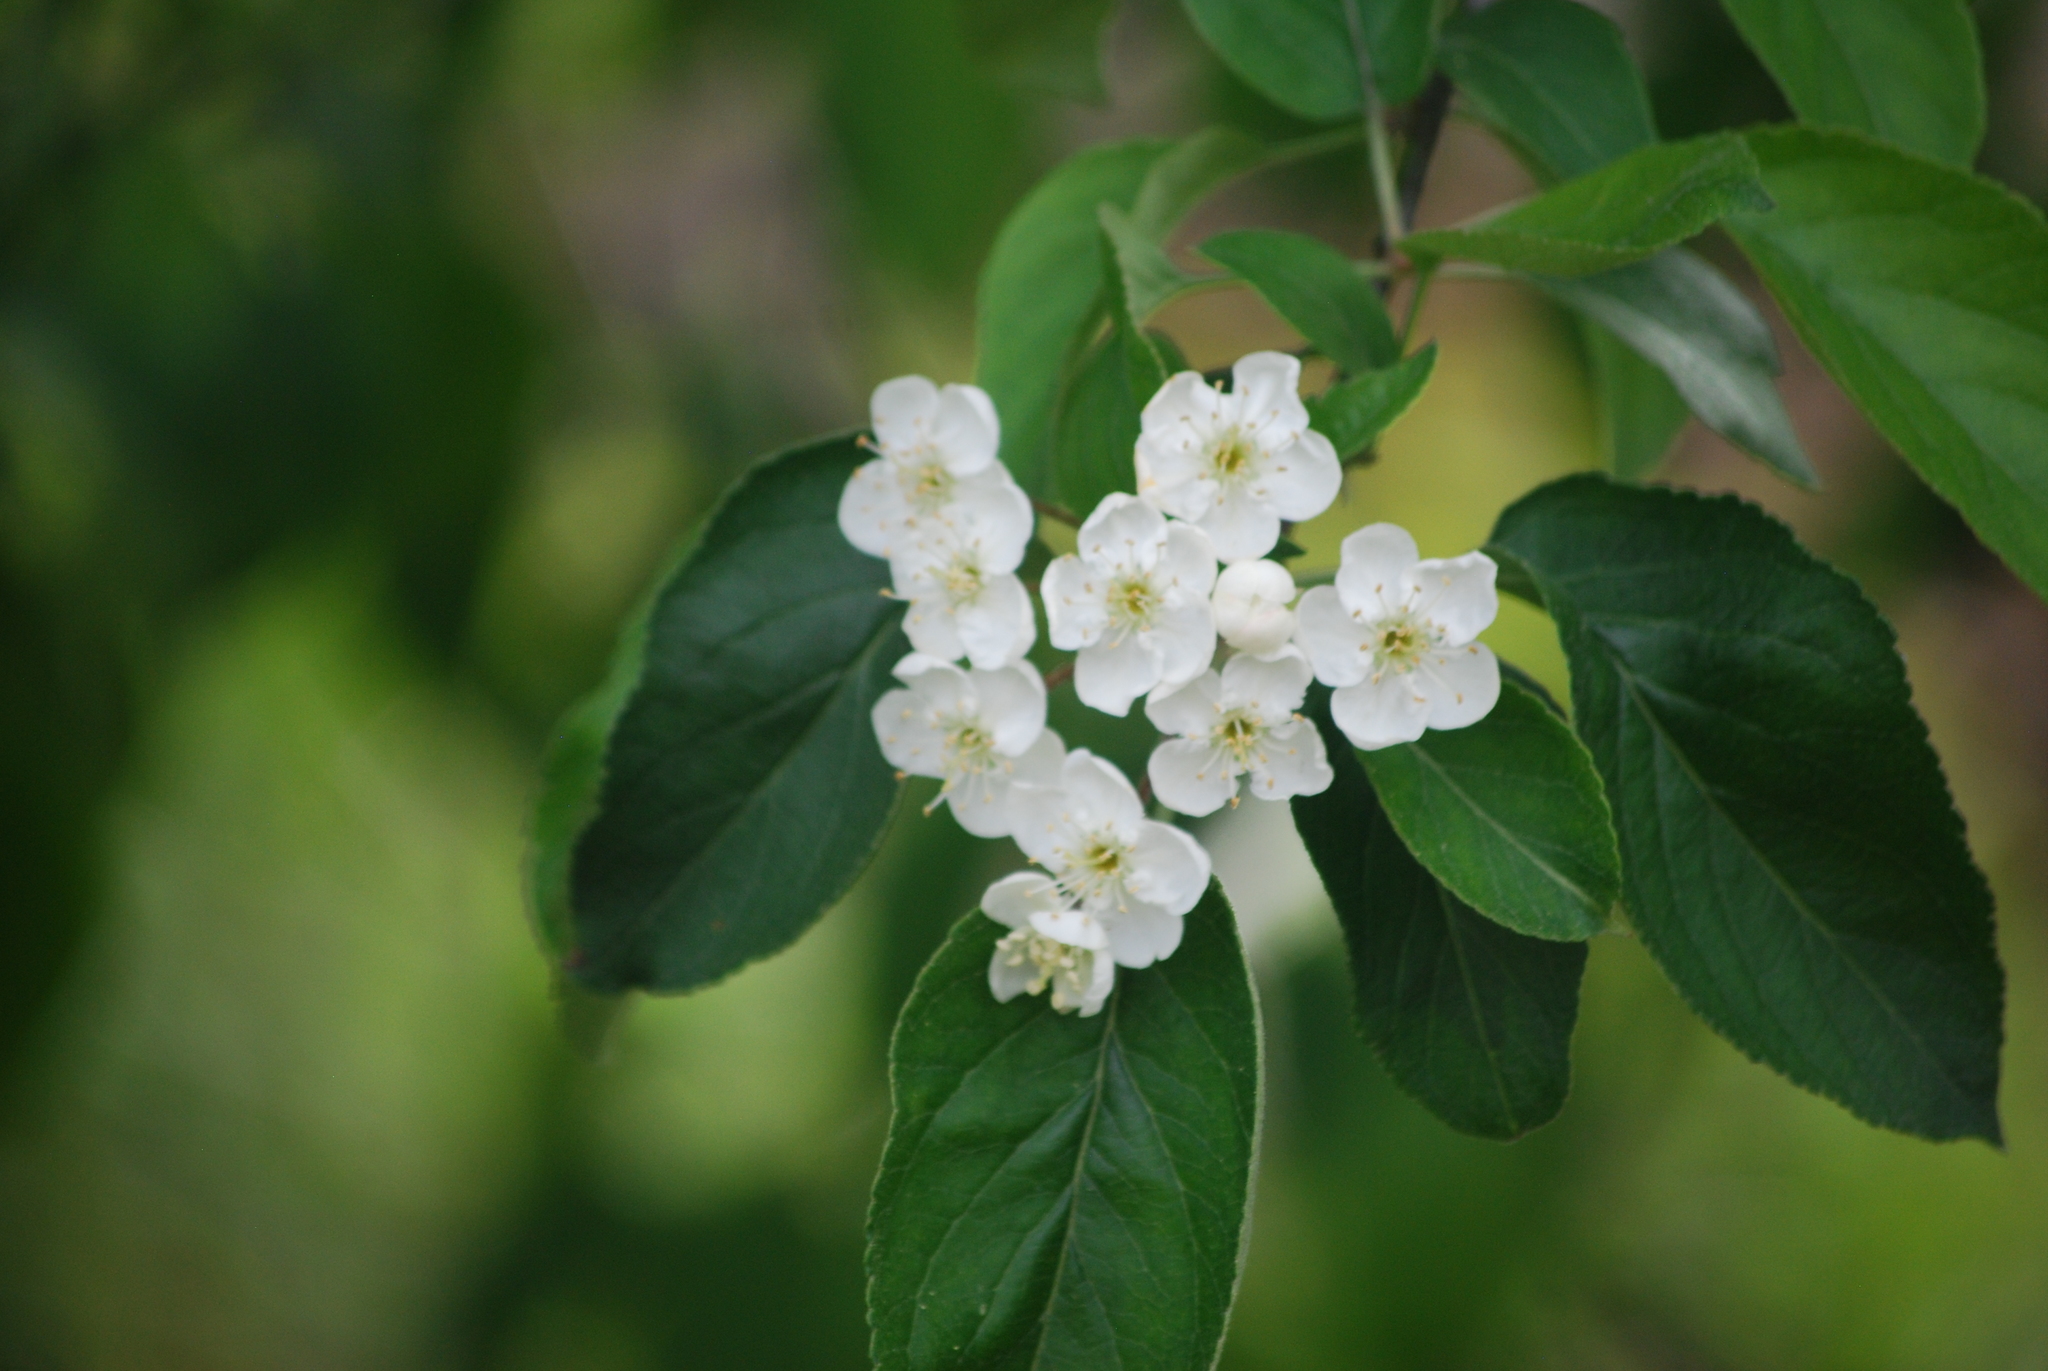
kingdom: Plantae
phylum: Tracheophyta
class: Magnoliopsida
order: Rosales
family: Rosaceae
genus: Malus
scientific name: Malus fusca
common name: Oregon crab apple
